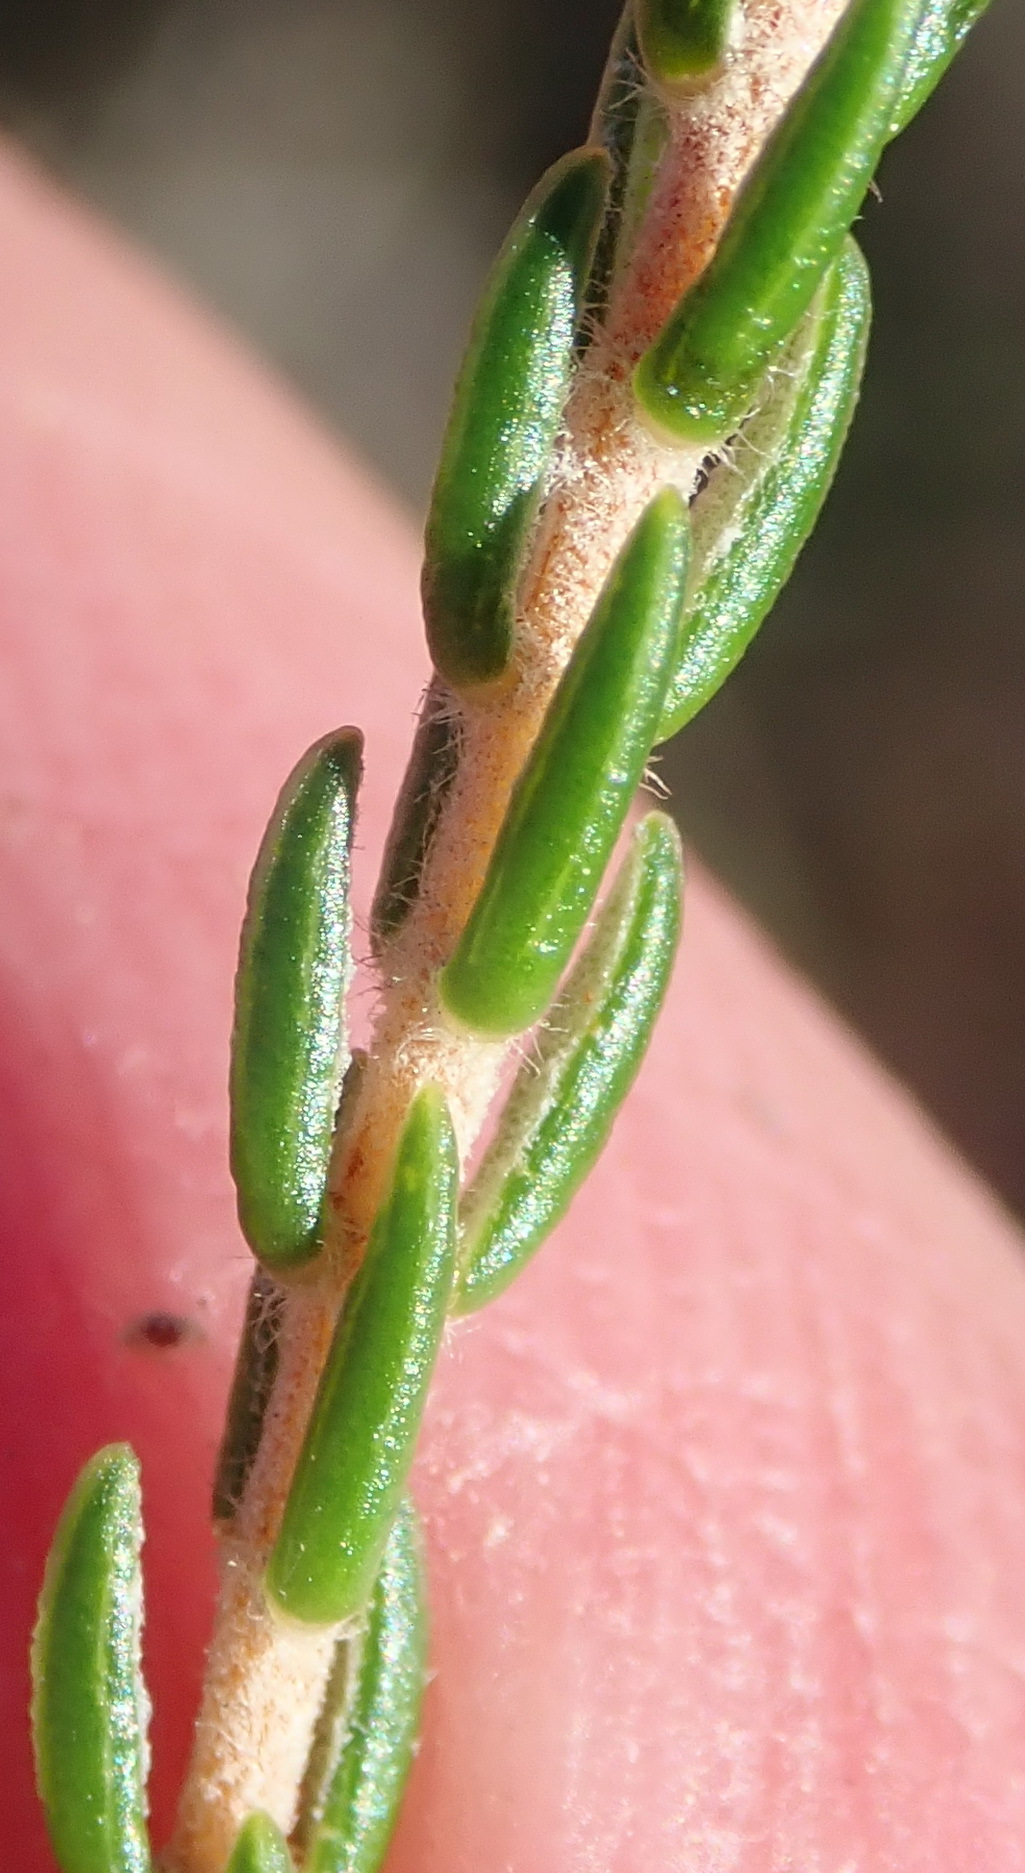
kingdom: Plantae
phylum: Tracheophyta
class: Magnoliopsida
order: Malvales
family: Thymelaeaceae
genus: Passerina
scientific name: Passerina corymbosa
